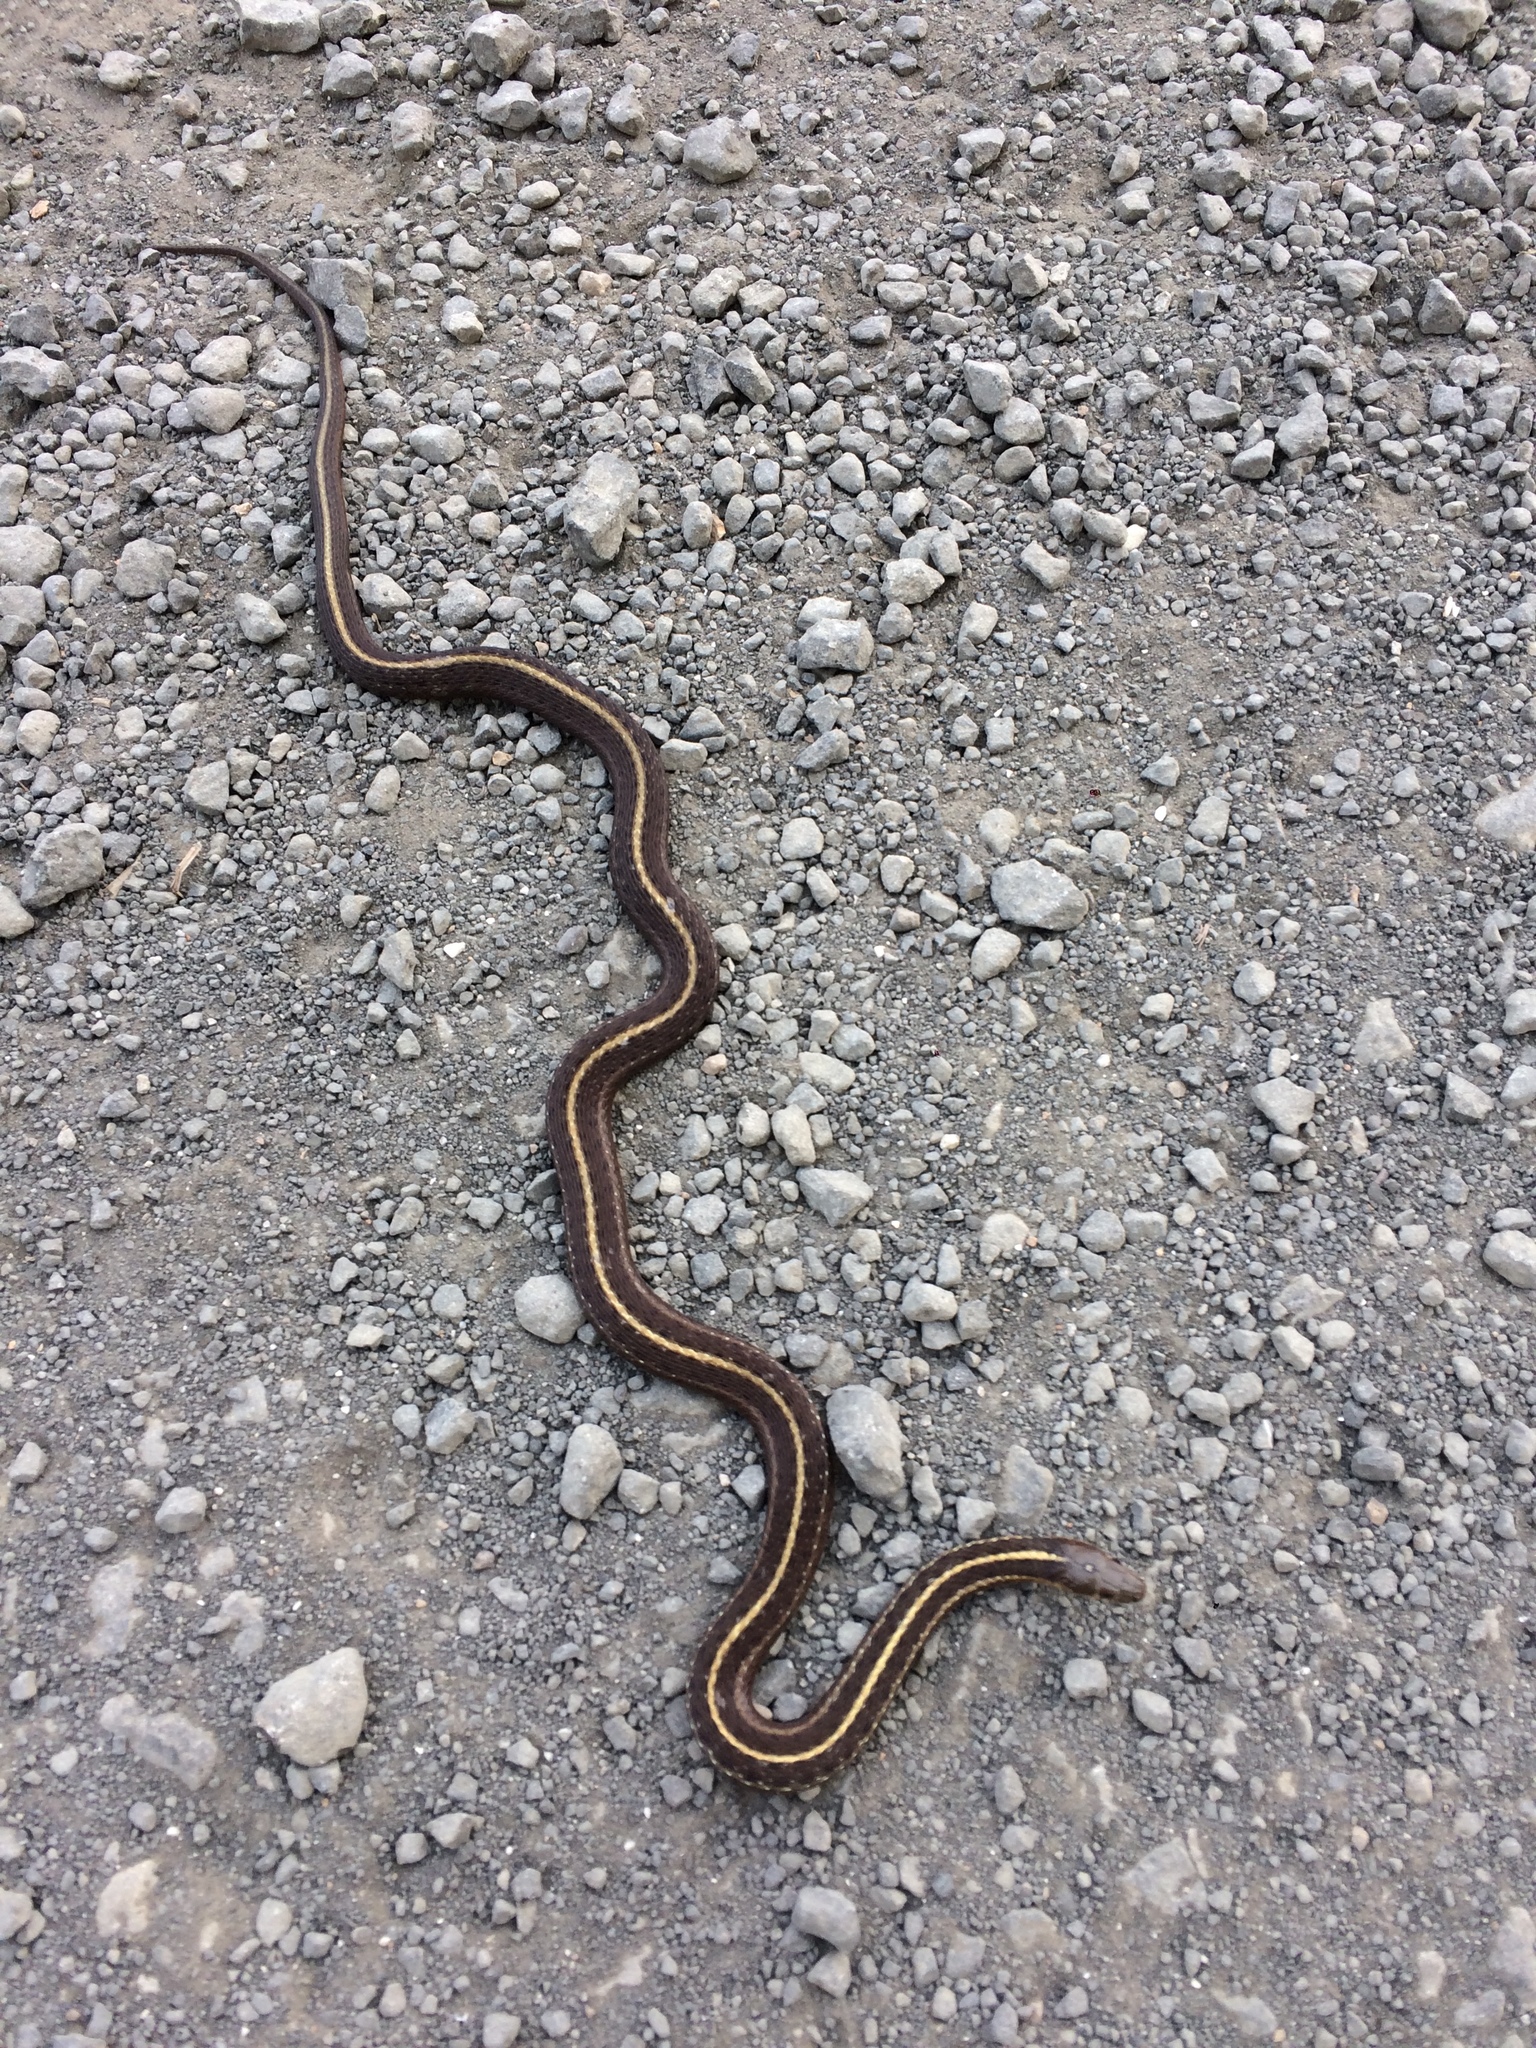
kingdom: Animalia
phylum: Chordata
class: Squamata
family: Colubridae
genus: Thamnophis
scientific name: Thamnophis ordinoides
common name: Northwestern garter snake
